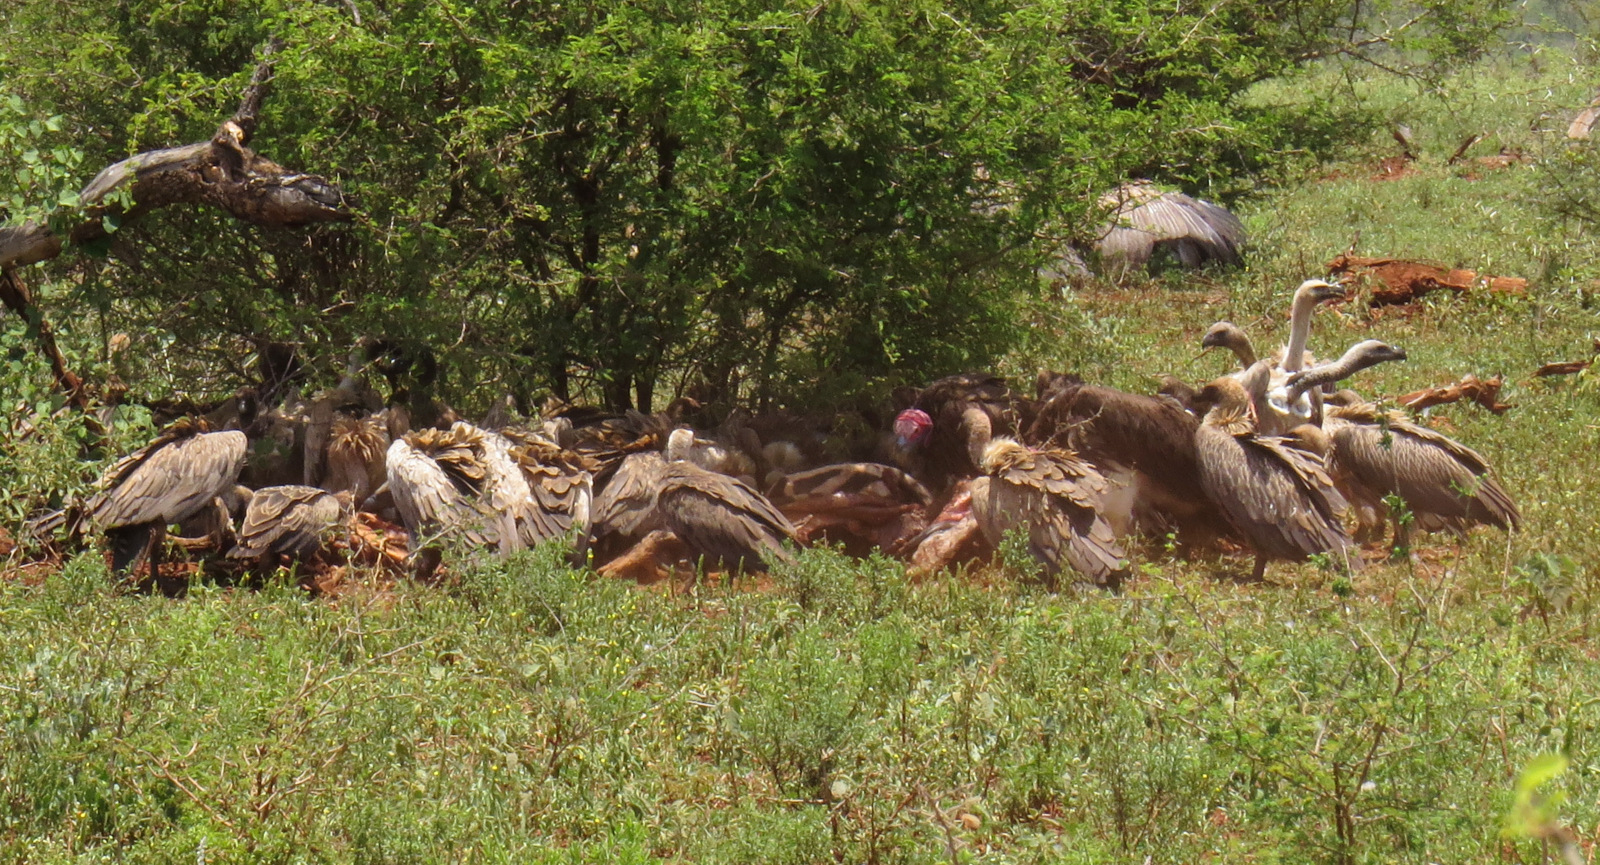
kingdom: Animalia
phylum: Chordata
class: Aves
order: Accipitriformes
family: Accipitridae
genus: Gyps
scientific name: Gyps africanus
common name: White-backed vulture
